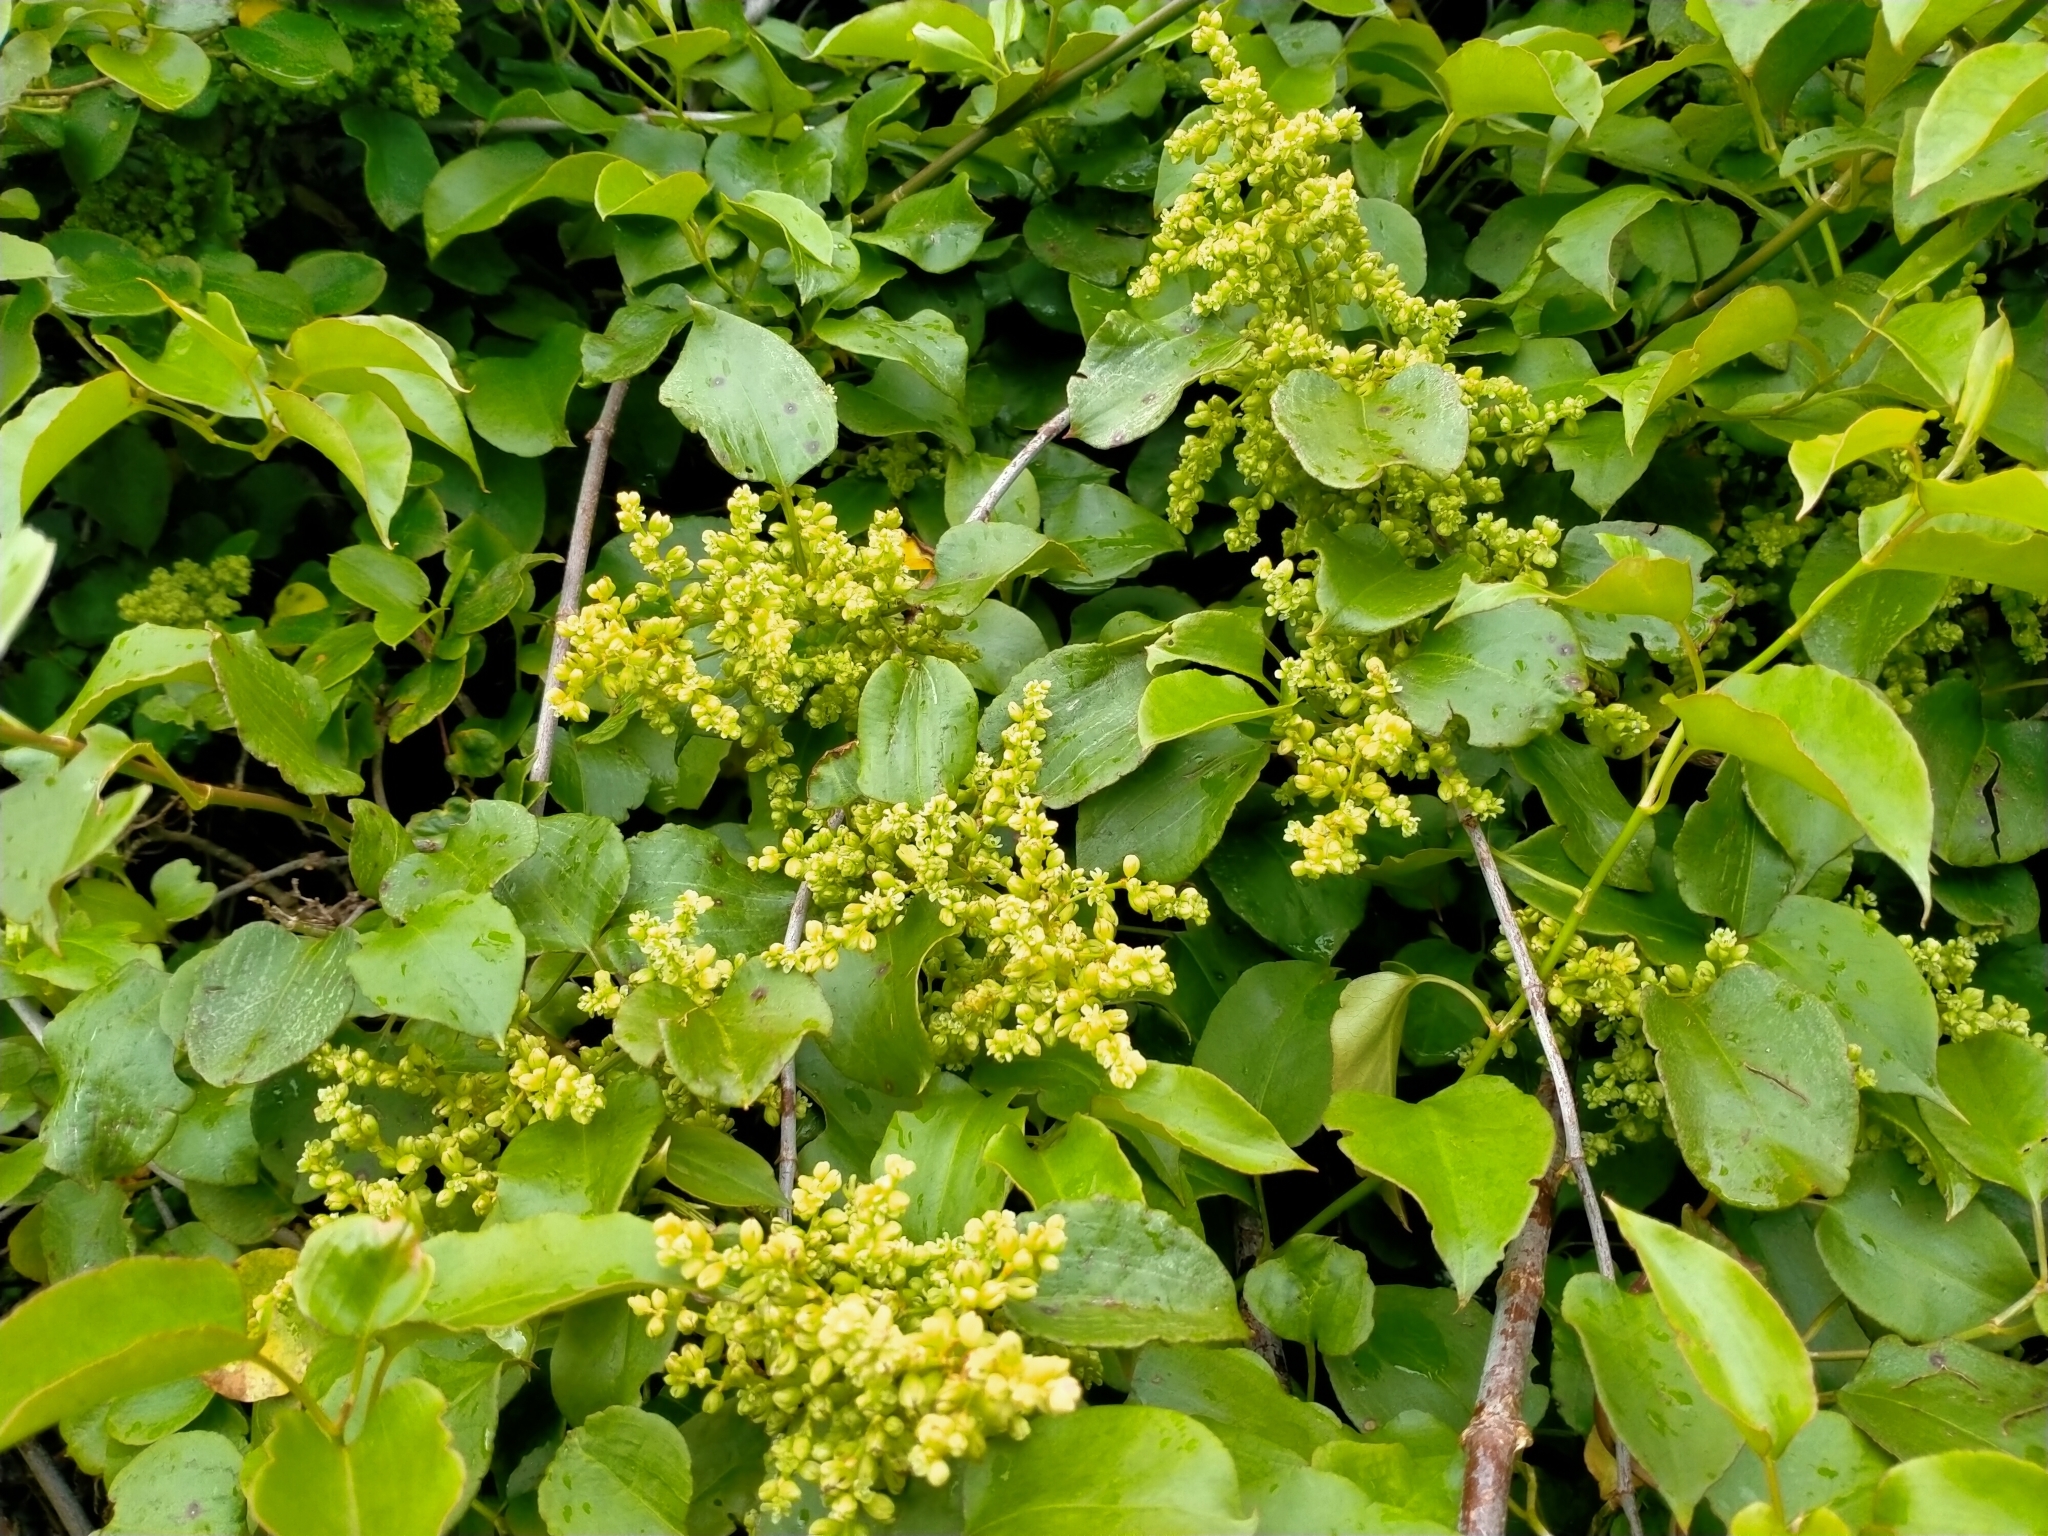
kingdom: Plantae
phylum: Tracheophyta
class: Magnoliopsida
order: Caryophyllales
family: Polygonaceae
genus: Muehlenbeckia
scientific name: Muehlenbeckia australis
